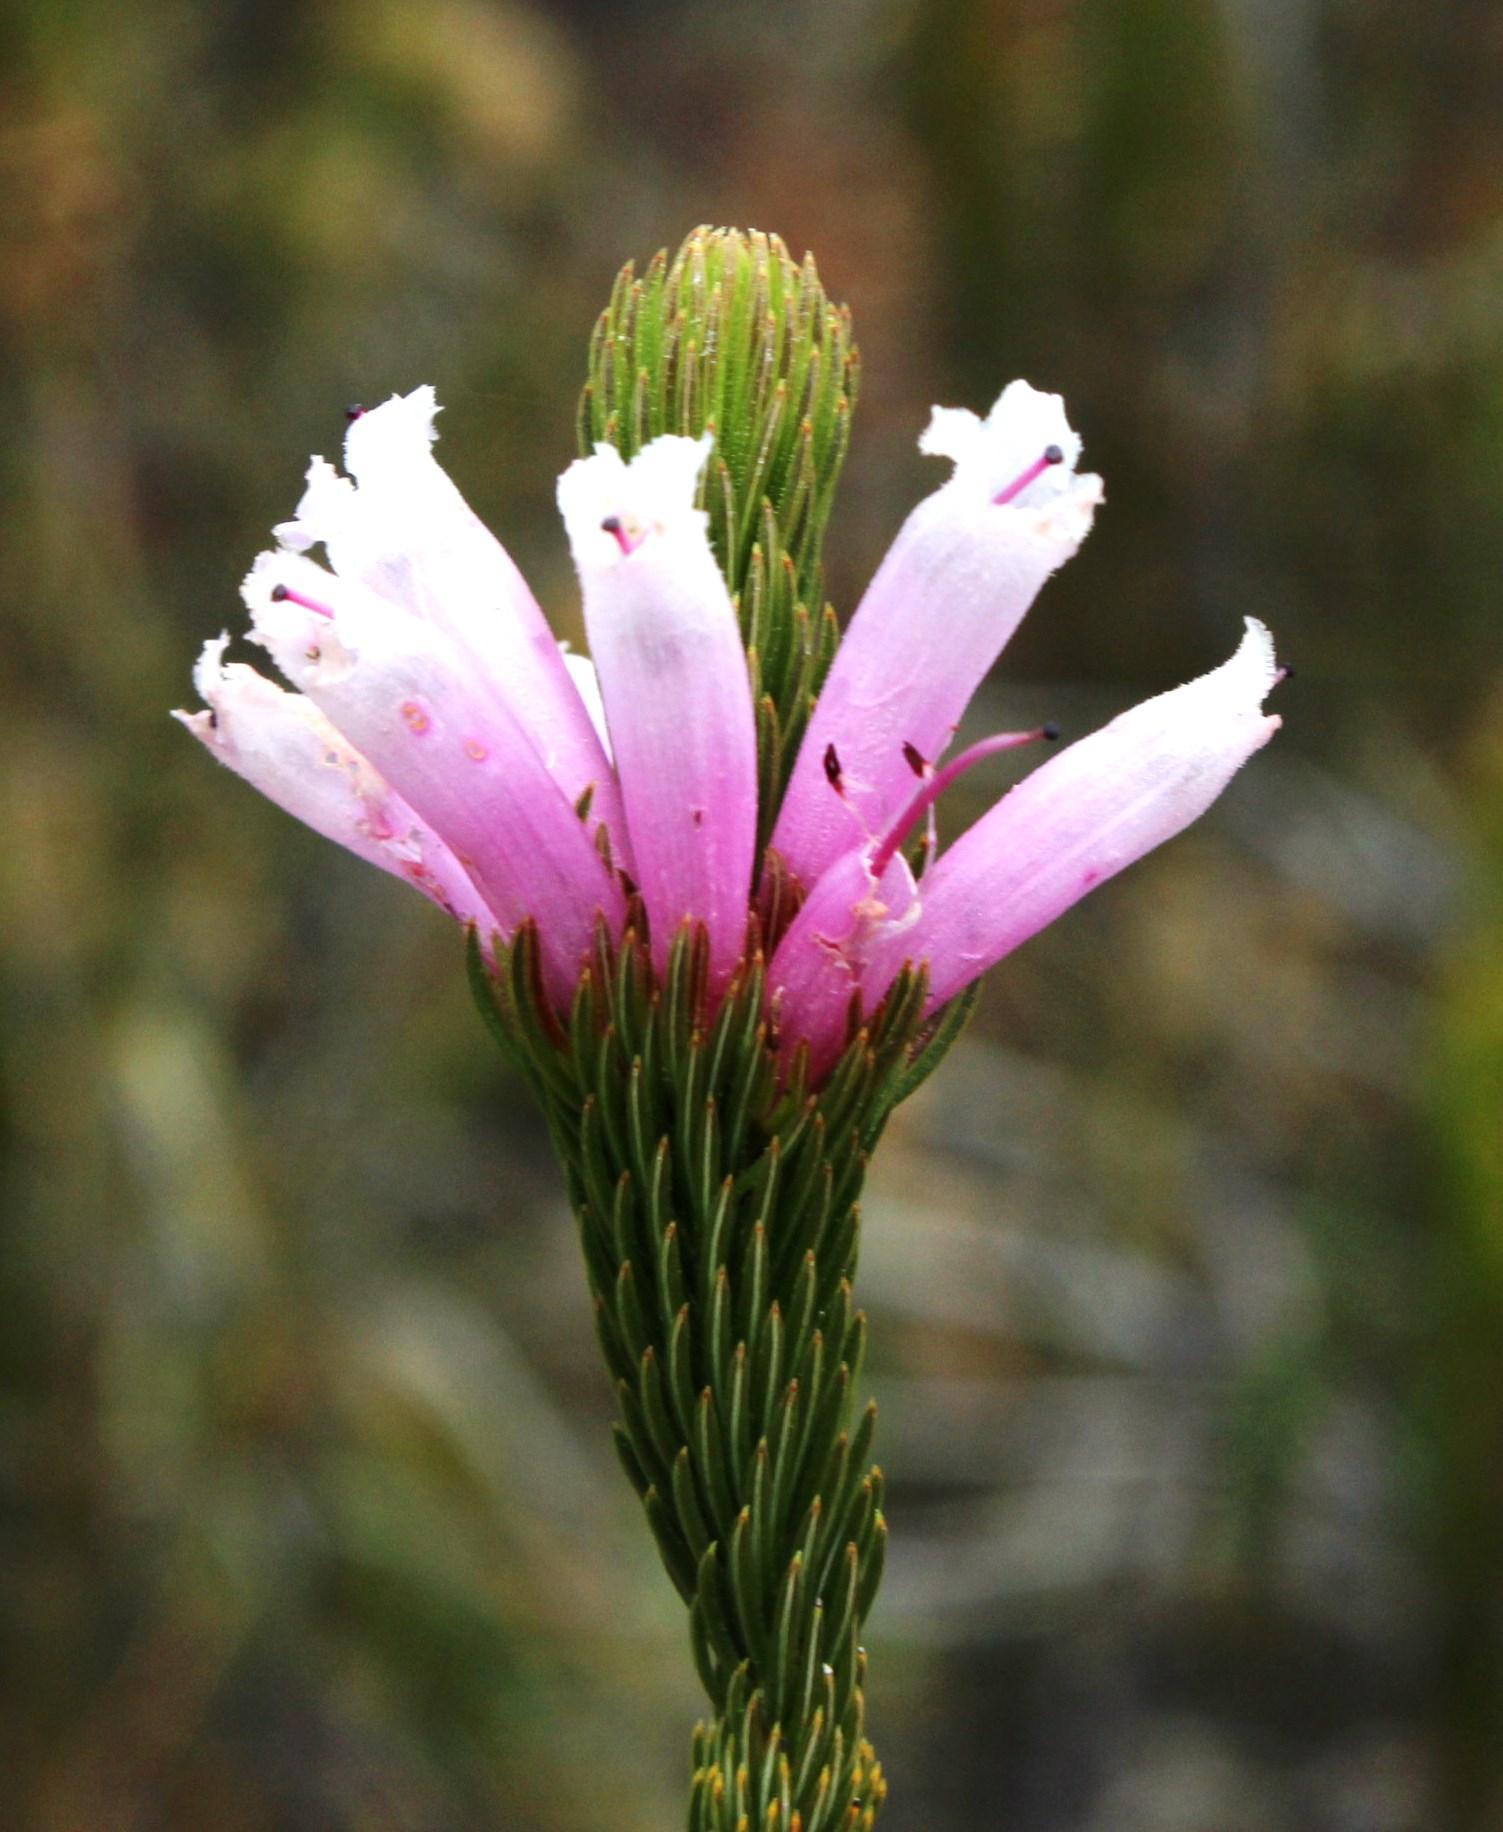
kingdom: Plantae
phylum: Tracheophyta
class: Magnoliopsida
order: Ericales
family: Ericaceae
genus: Erica
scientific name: Erica viscaria
